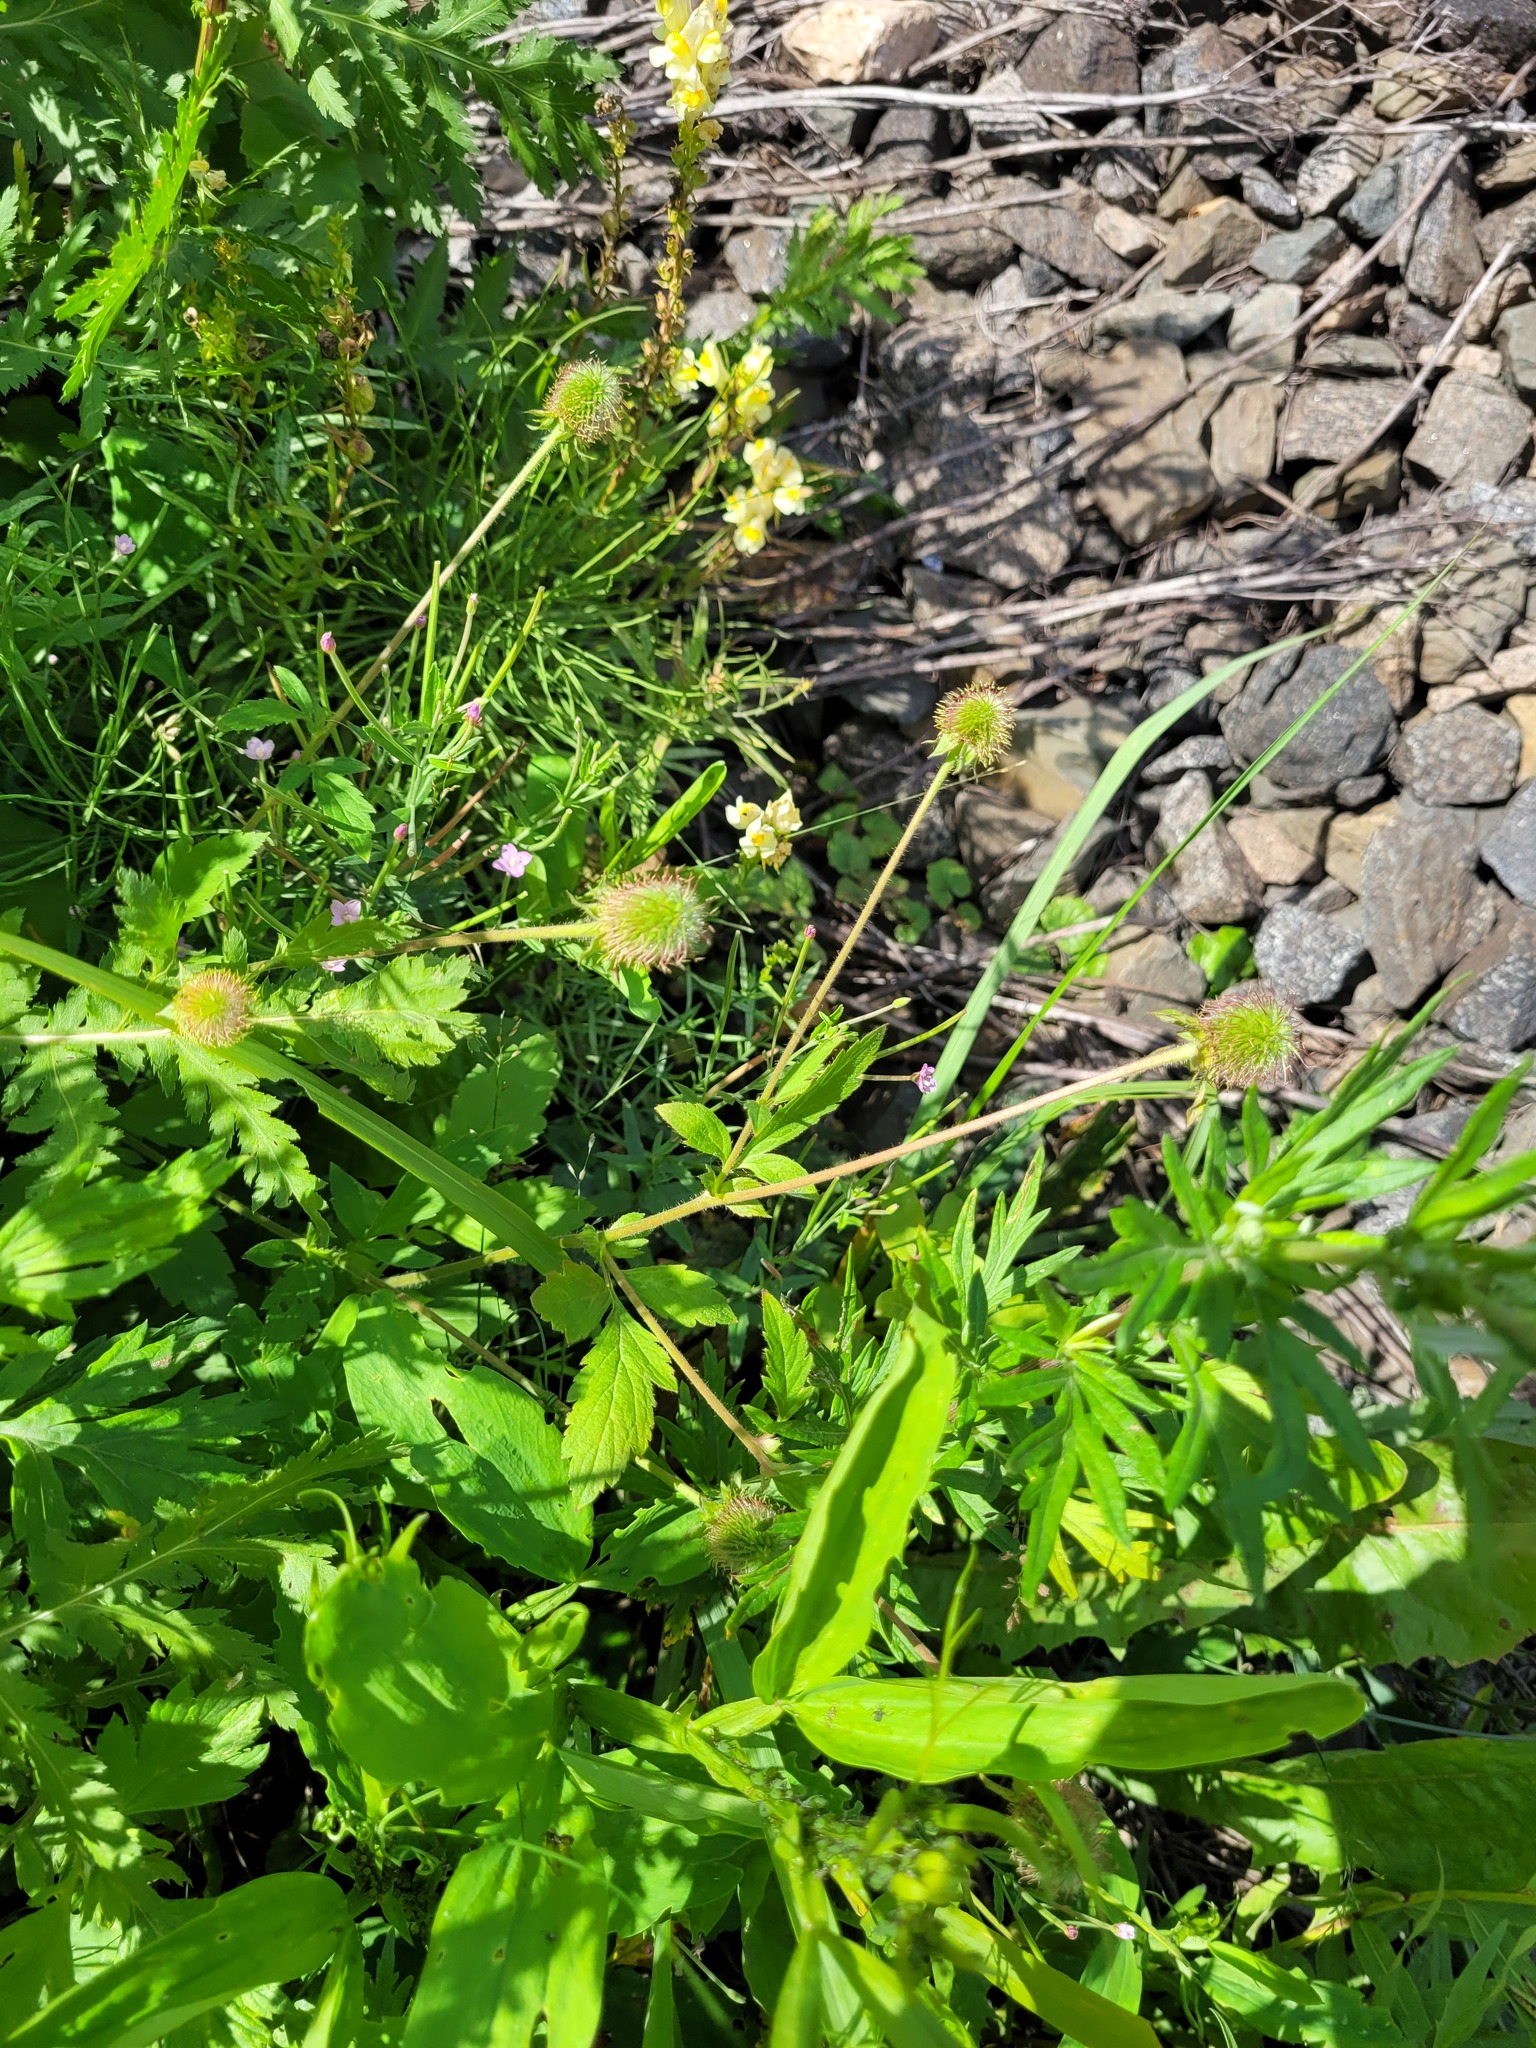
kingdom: Plantae
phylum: Tracheophyta
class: Magnoliopsida
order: Rosales
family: Rosaceae
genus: Geum
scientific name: Geum aleppicum
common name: Yellow avens
